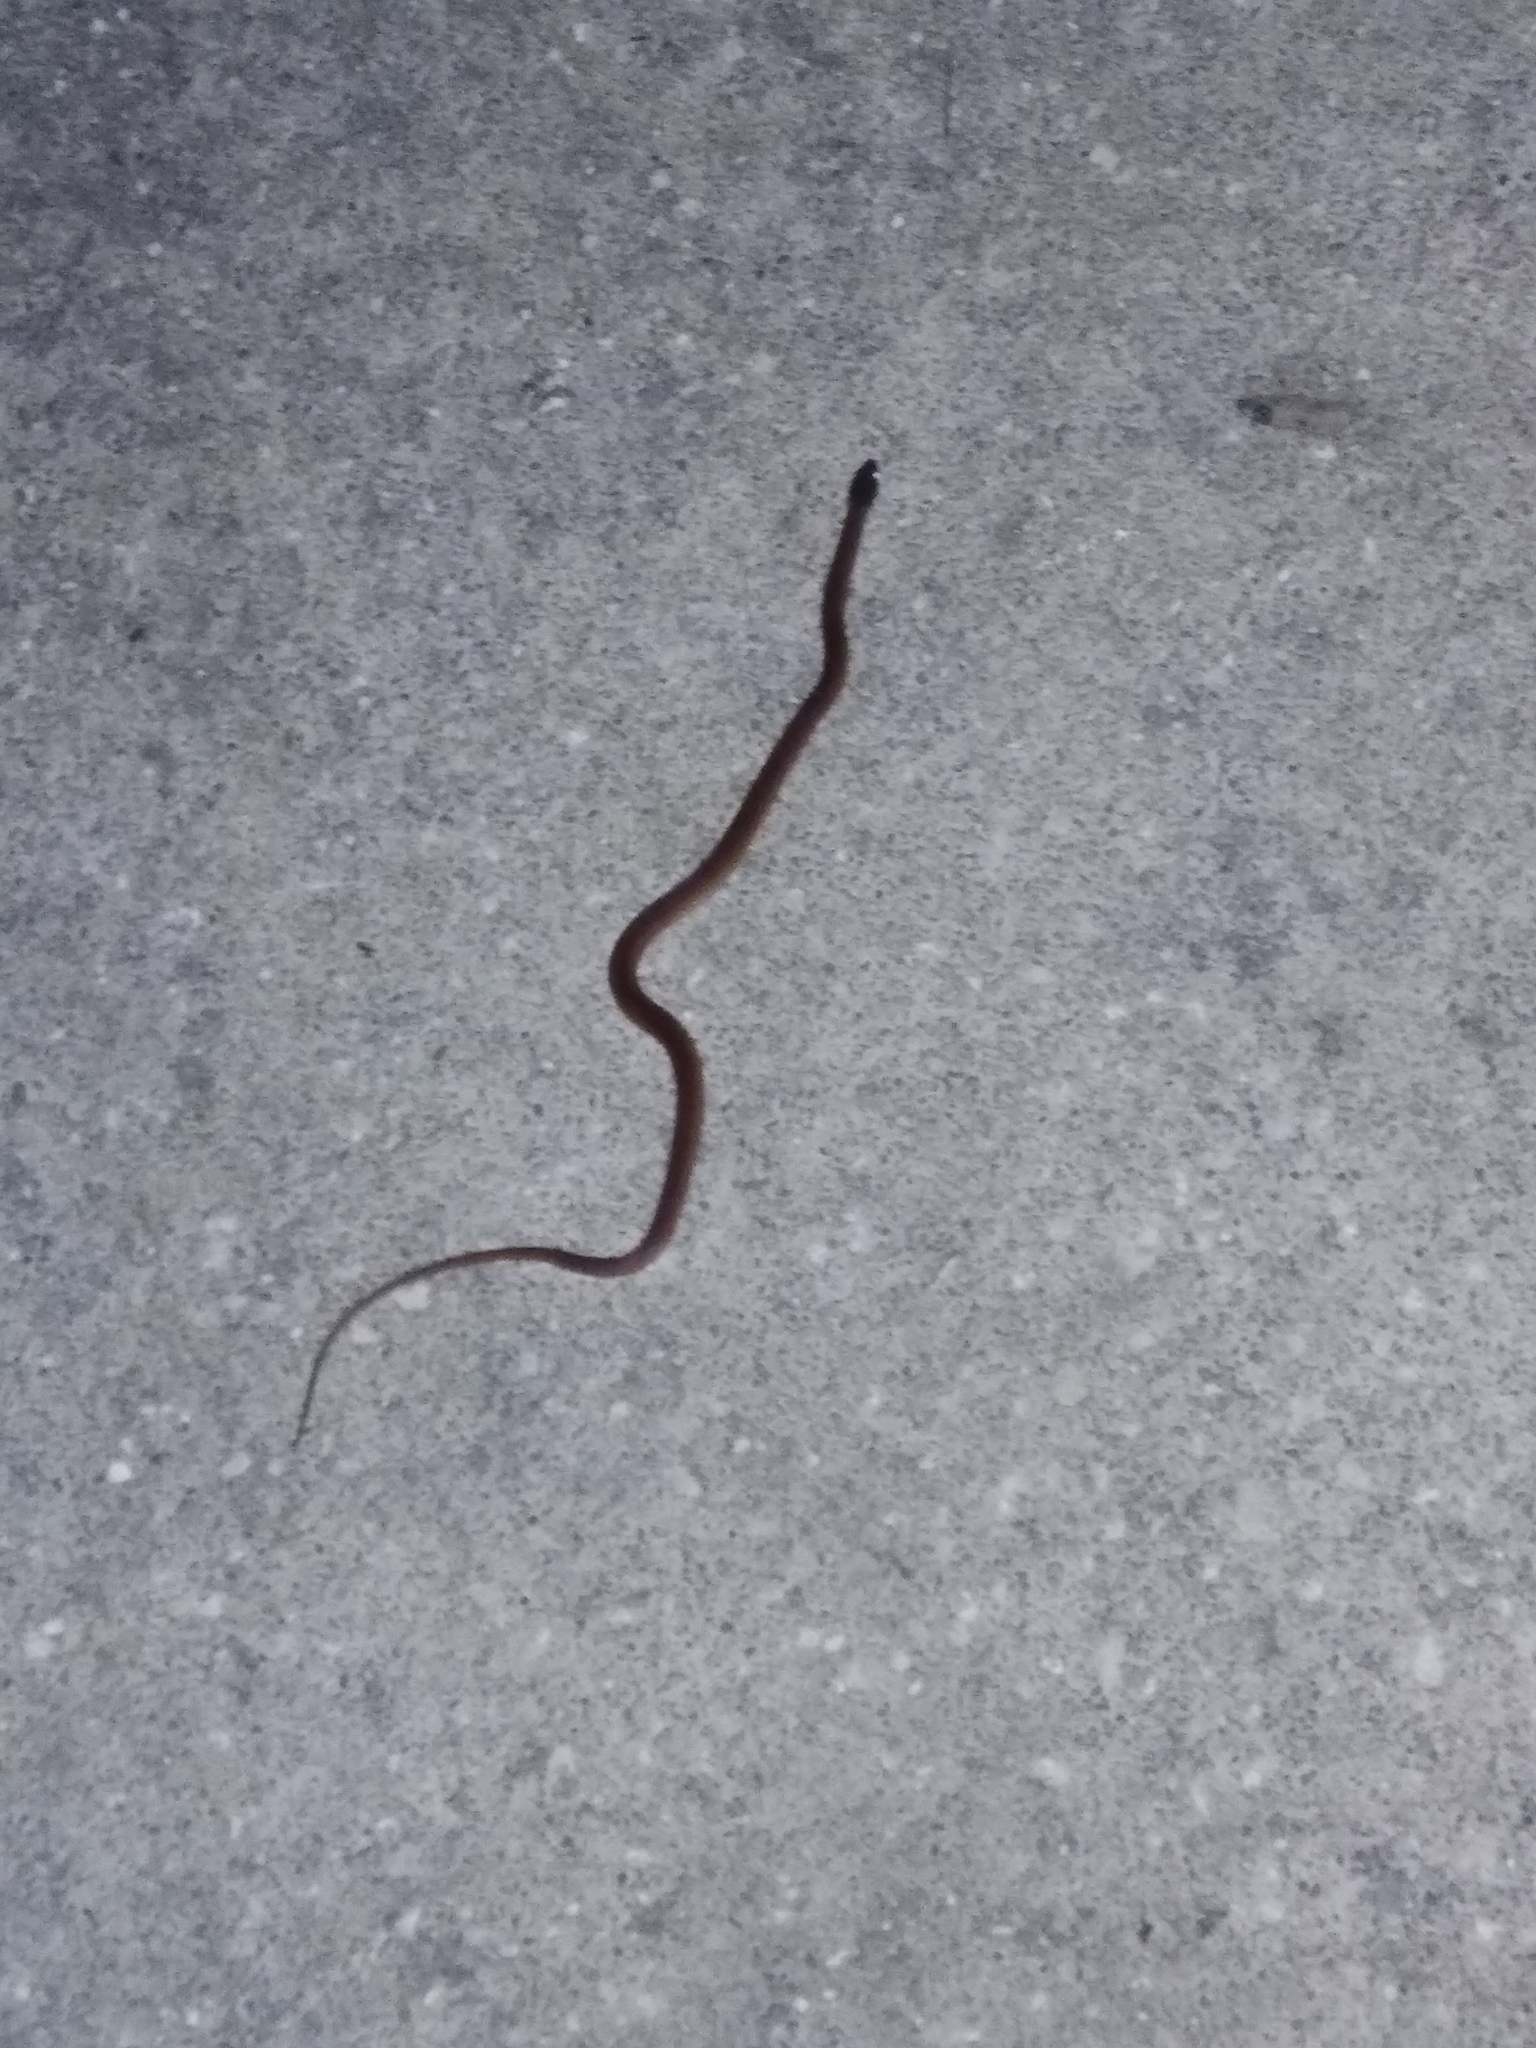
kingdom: Animalia
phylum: Chordata
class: Squamata
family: Colubridae
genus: Rhadinaea
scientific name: Rhadinaea flavilata
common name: Pine woods littersnake
